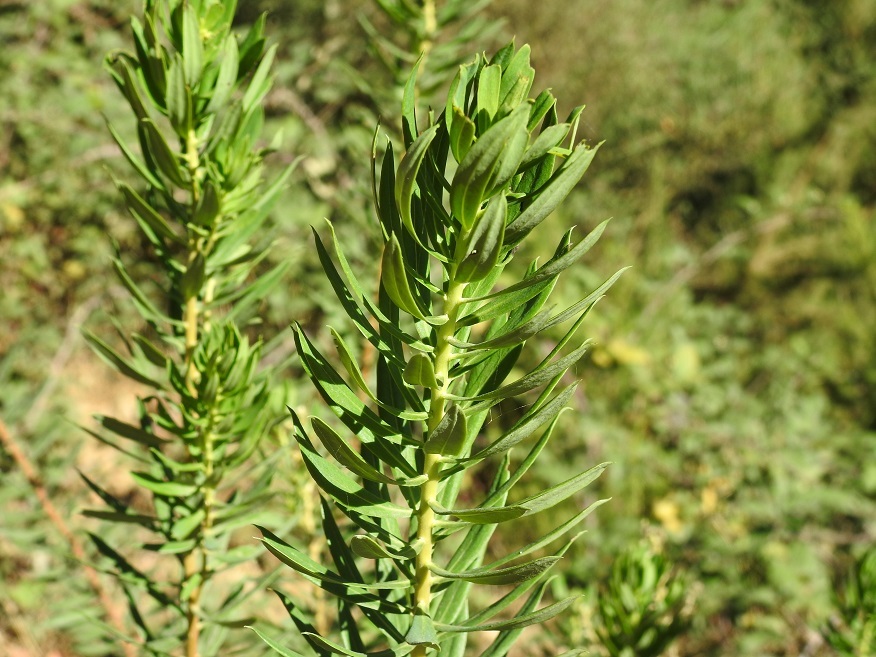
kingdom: Plantae
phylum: Tracheophyta
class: Magnoliopsida
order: Malvales
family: Thymelaeaceae
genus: Daphne
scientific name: Daphne gnidium
